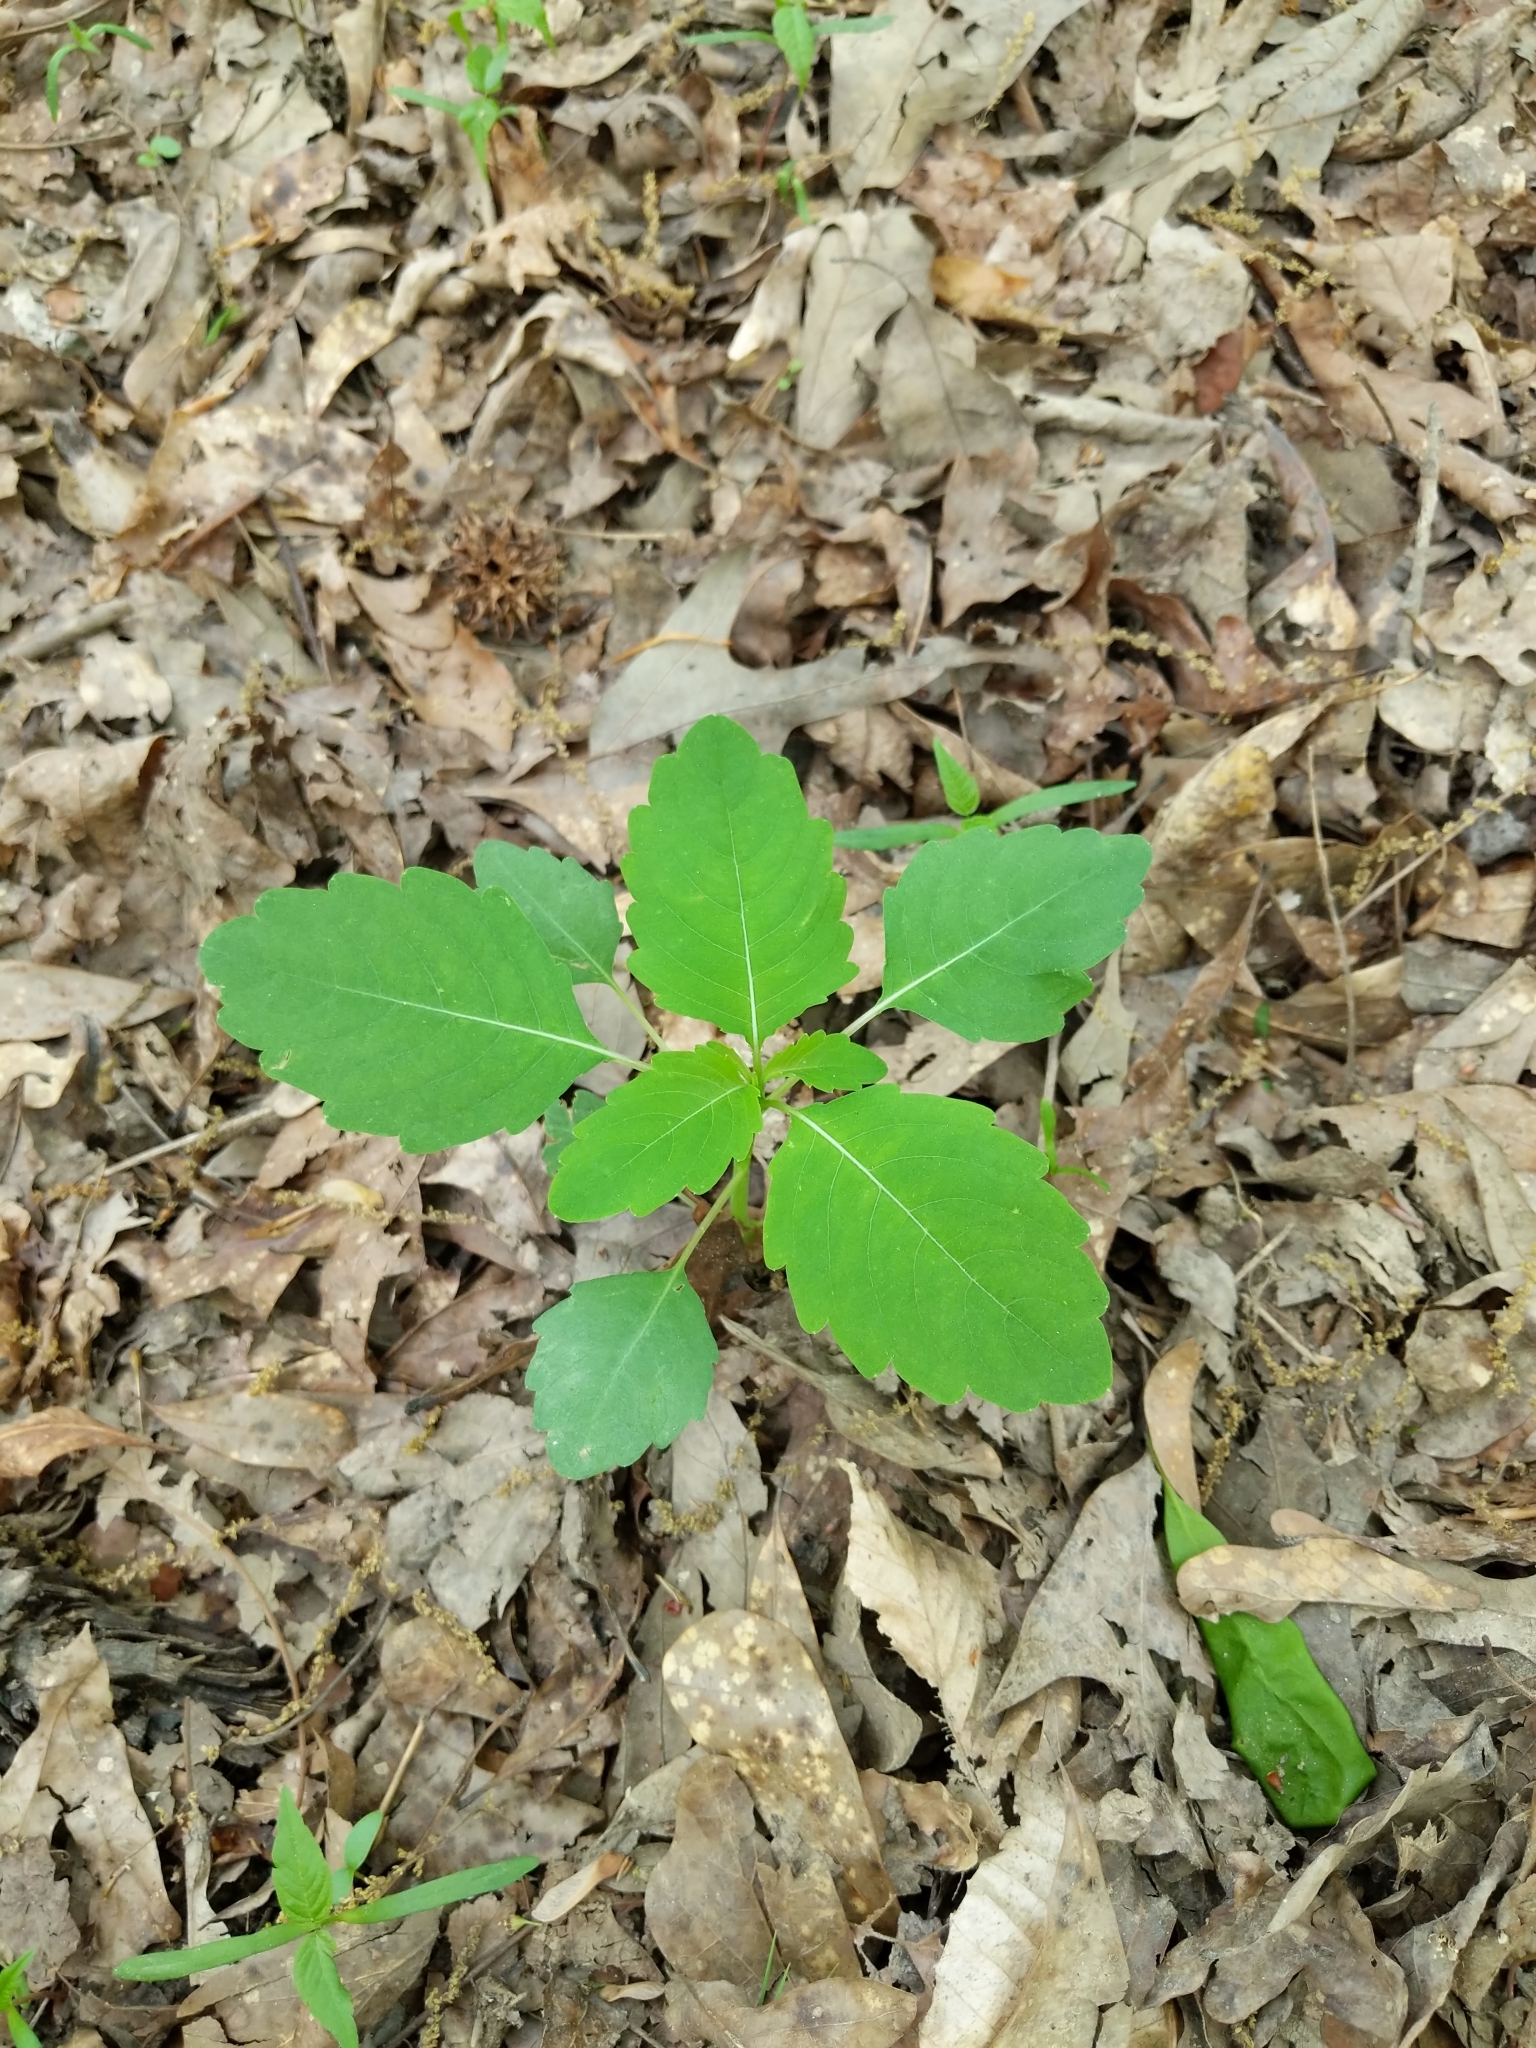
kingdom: Plantae
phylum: Tracheophyta
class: Magnoliopsida
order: Ericales
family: Balsaminaceae
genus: Impatiens
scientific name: Impatiens capensis
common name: Orange balsam
